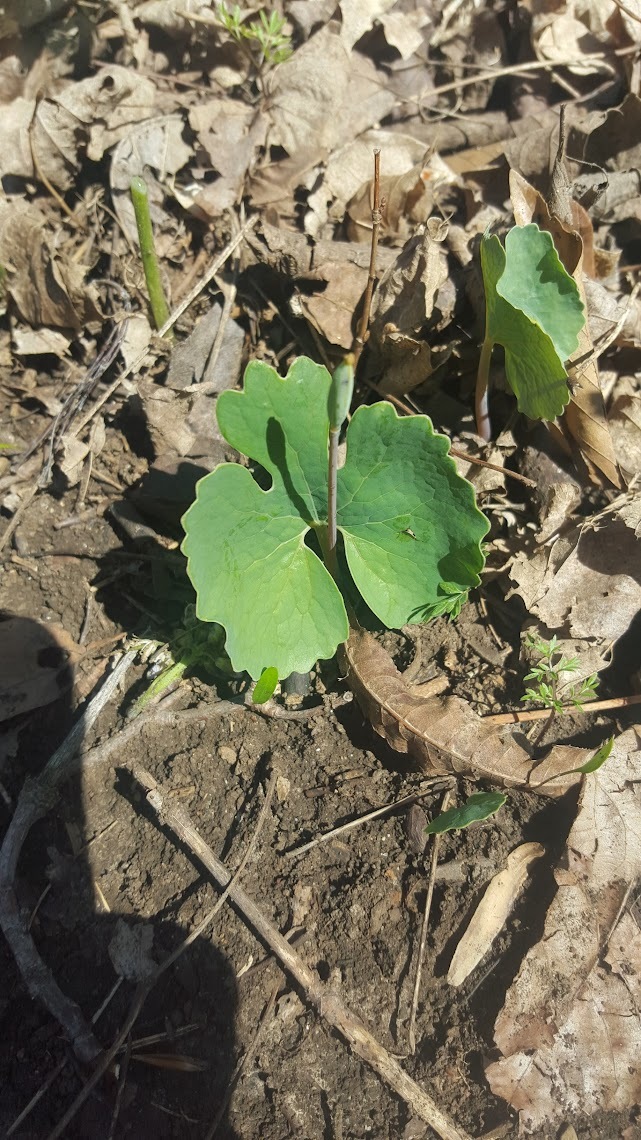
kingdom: Plantae
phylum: Tracheophyta
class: Magnoliopsida
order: Ranunculales
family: Papaveraceae
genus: Sanguinaria
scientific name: Sanguinaria canadensis
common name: Bloodroot
